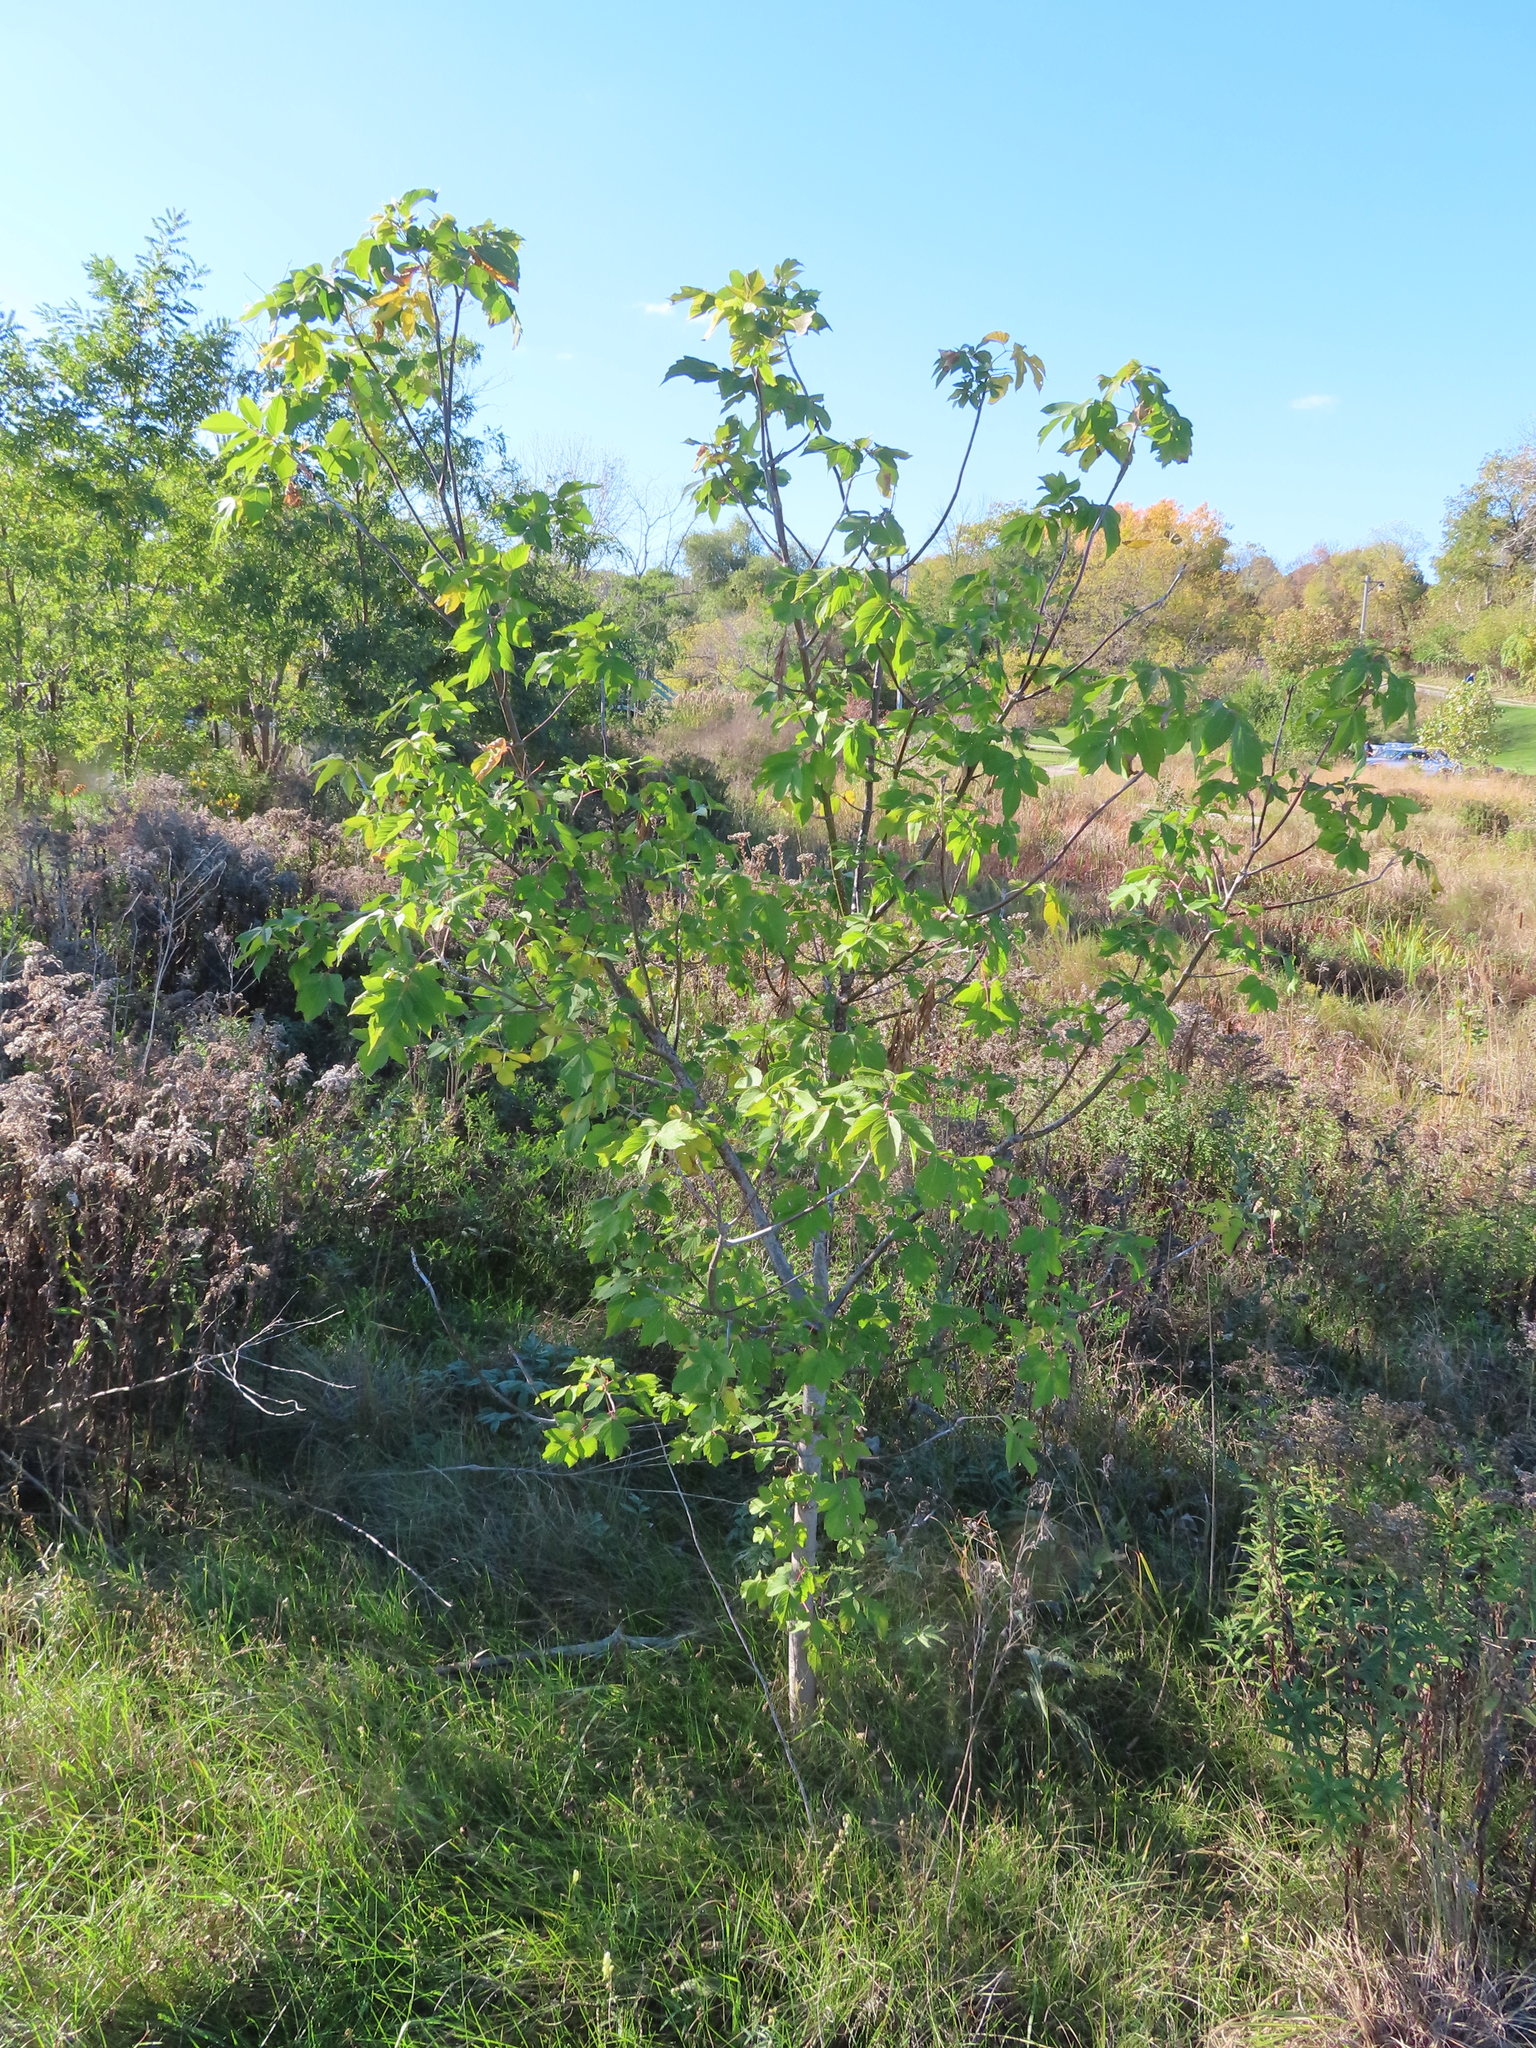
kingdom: Plantae
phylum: Tracheophyta
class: Magnoliopsida
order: Sapindales
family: Sapindaceae
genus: Acer
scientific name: Acer negundo
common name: Ashleaf maple
